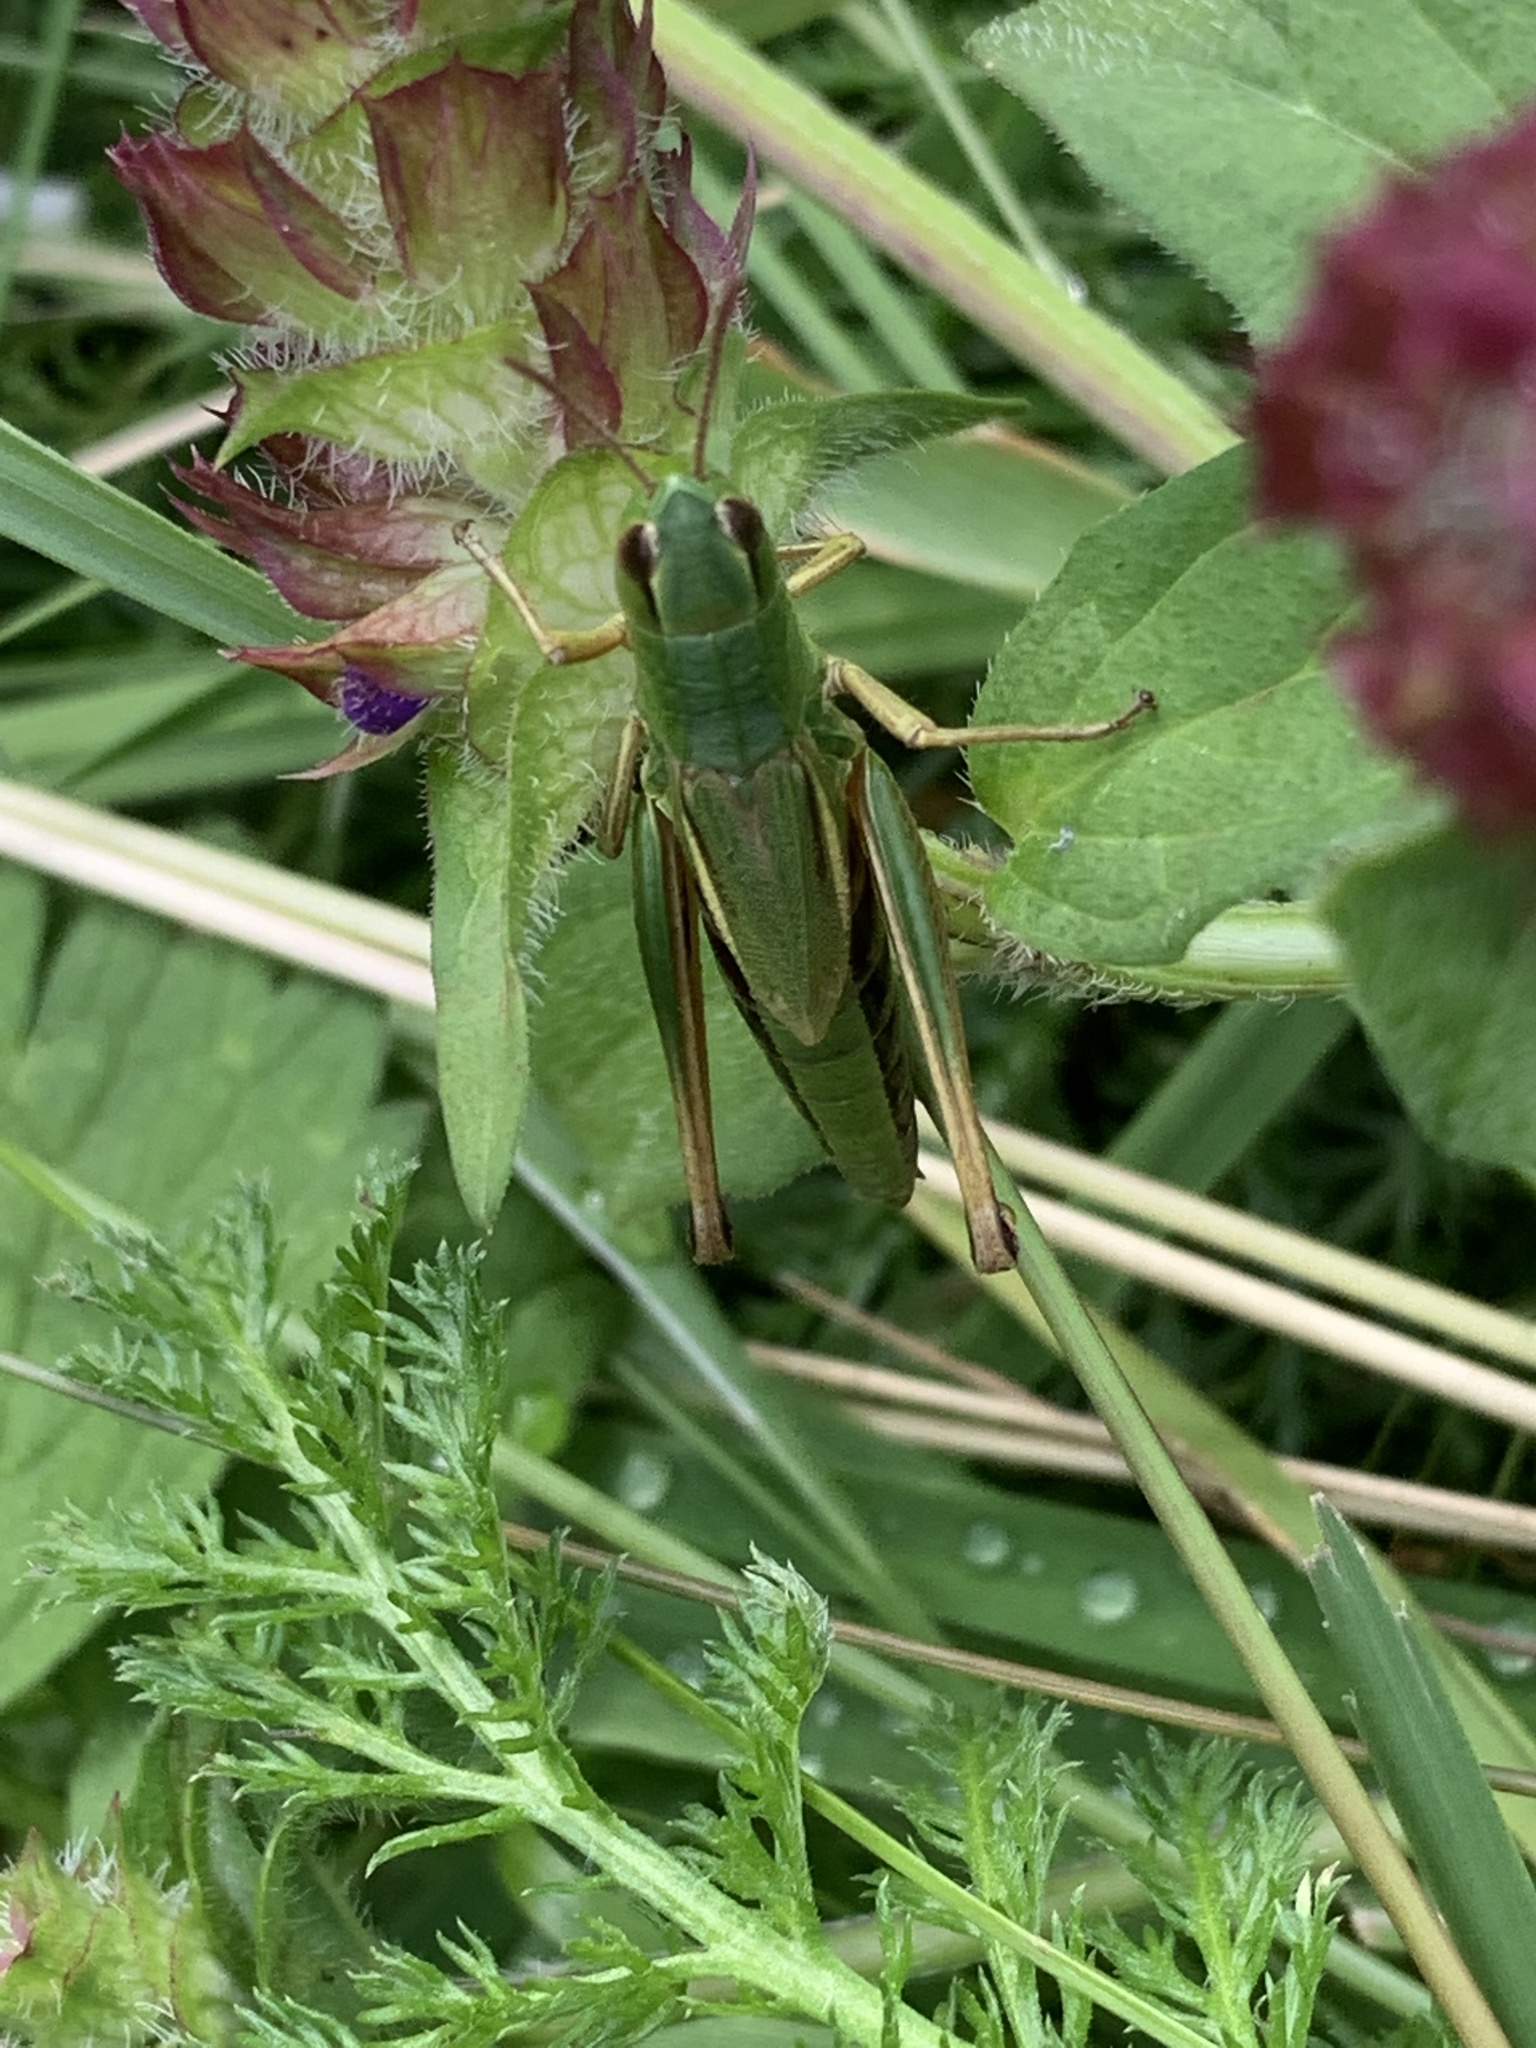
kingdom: Animalia
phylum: Arthropoda
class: Insecta
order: Orthoptera
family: Acrididae
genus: Pseudochorthippus
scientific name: Pseudochorthippus parallelus
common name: Meadow grasshopper
